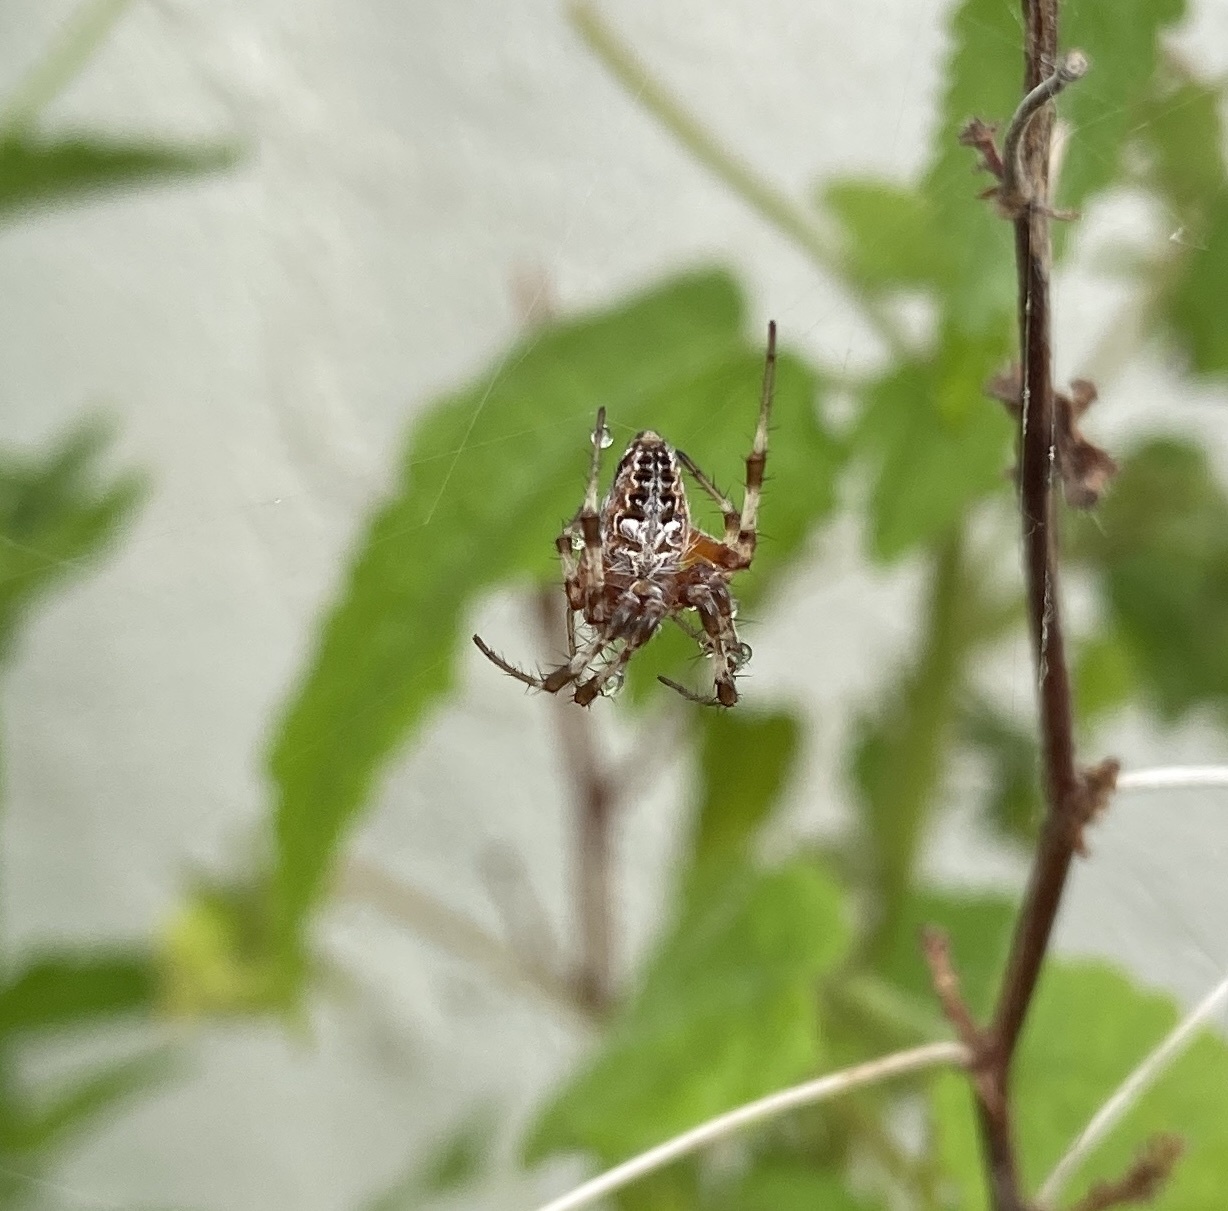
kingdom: Animalia
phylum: Arthropoda
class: Arachnida
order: Araneae
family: Araneidae
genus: Metepeira
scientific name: Metepeira
